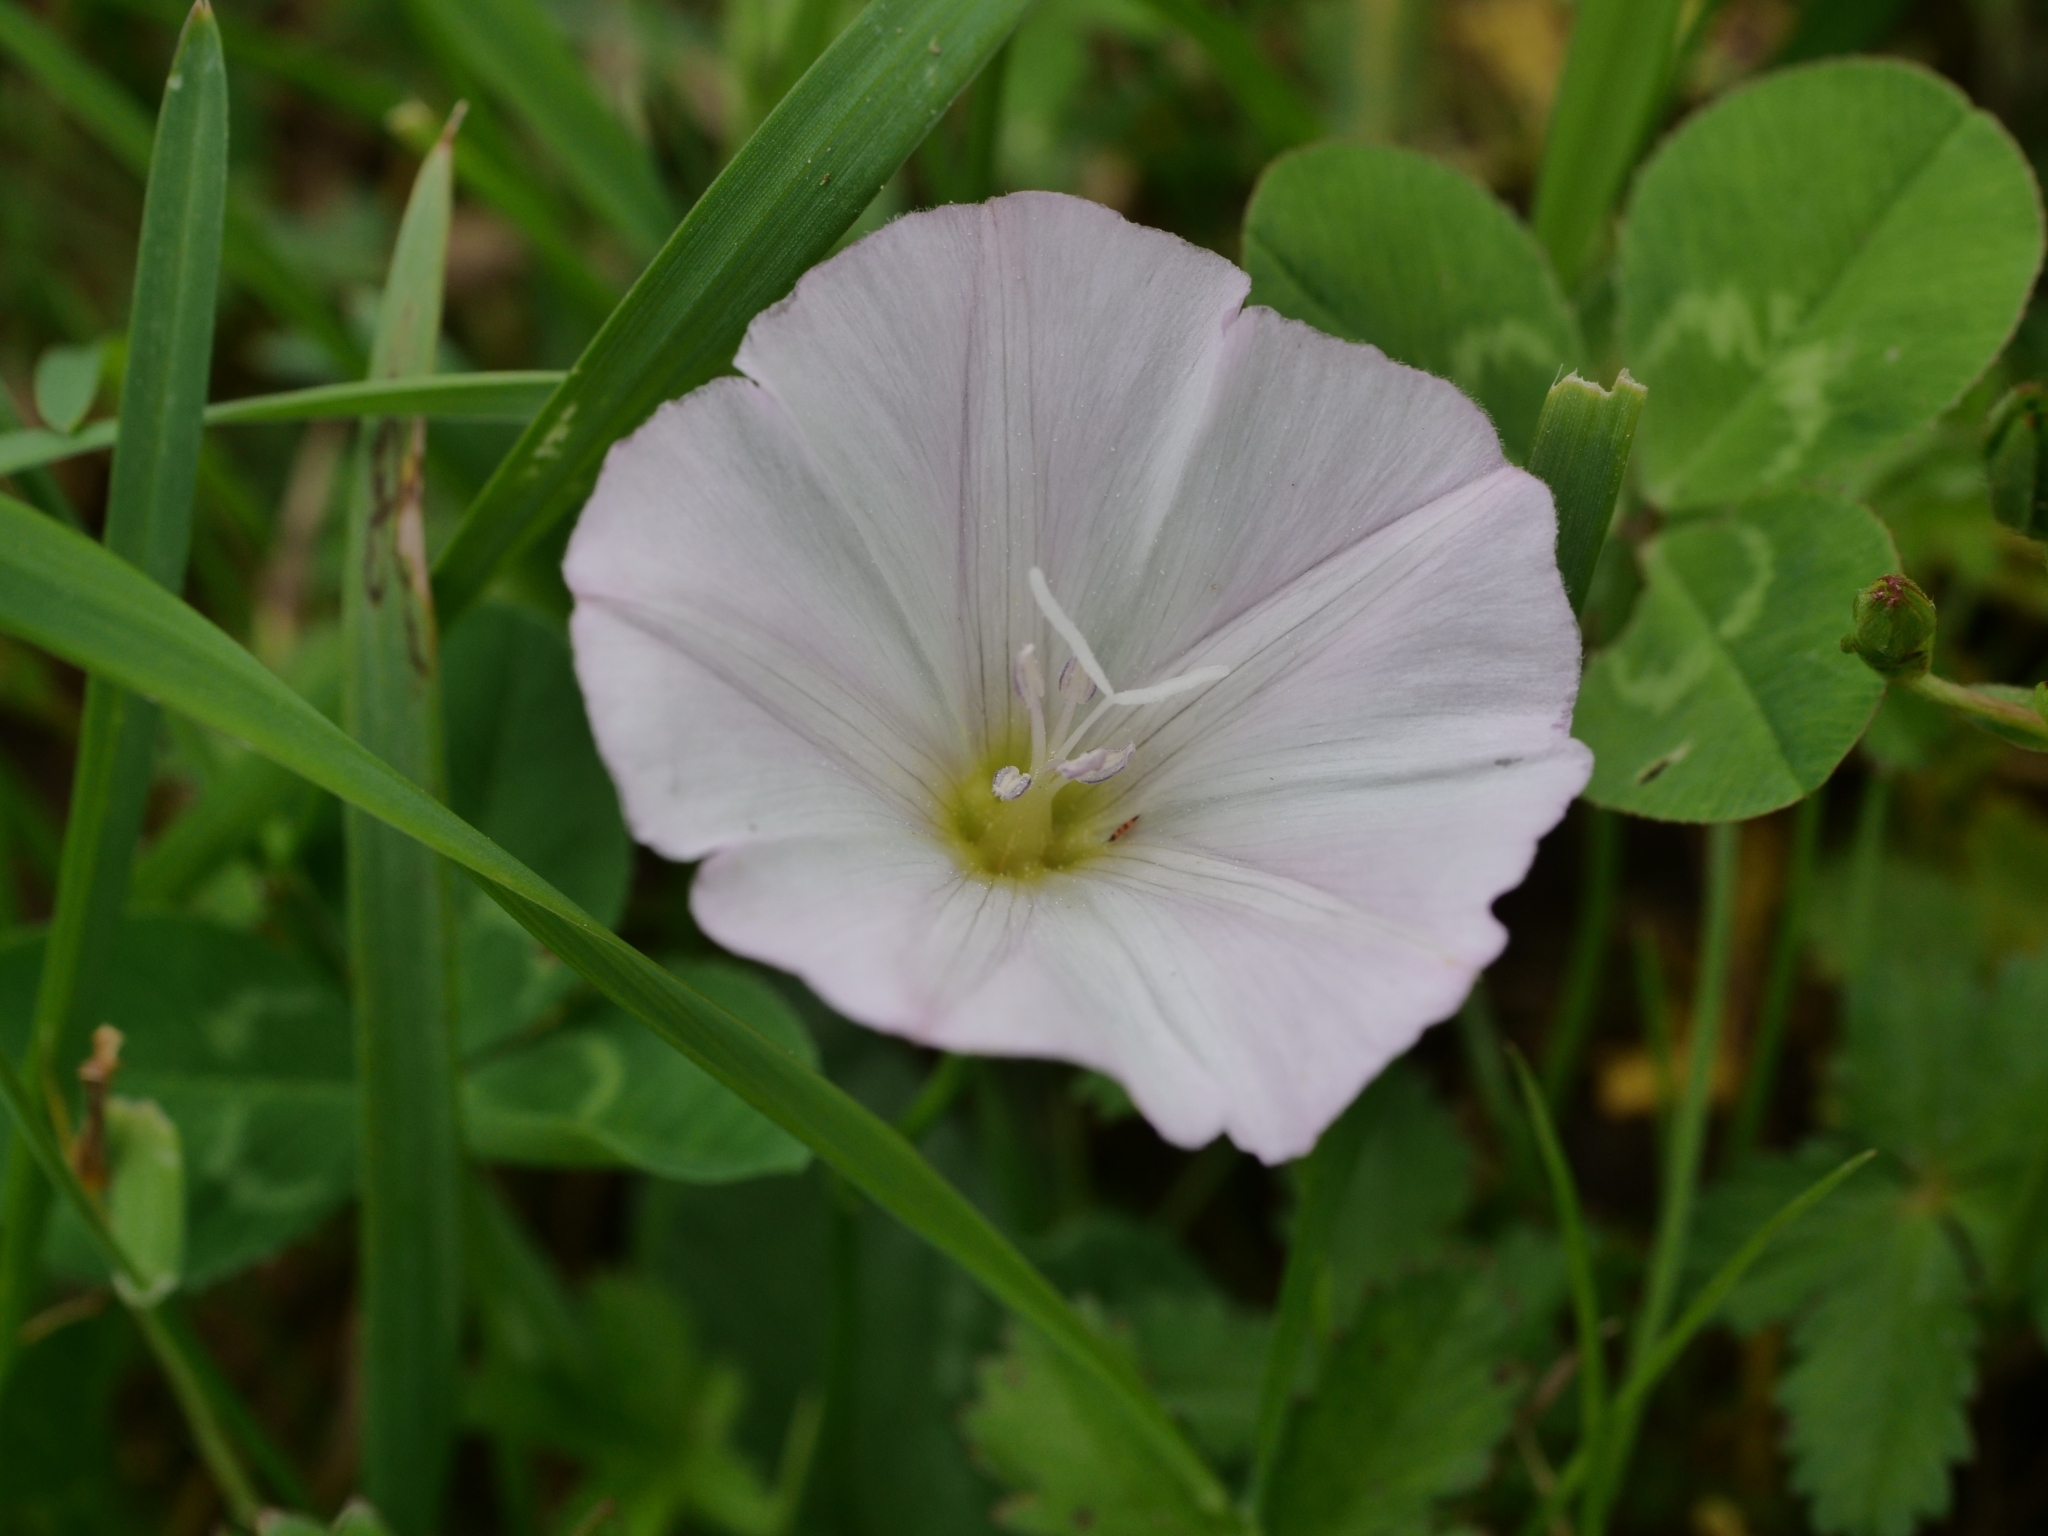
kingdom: Plantae
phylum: Tracheophyta
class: Magnoliopsida
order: Solanales
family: Convolvulaceae
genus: Convolvulus
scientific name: Convolvulus arvensis
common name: Field bindweed
